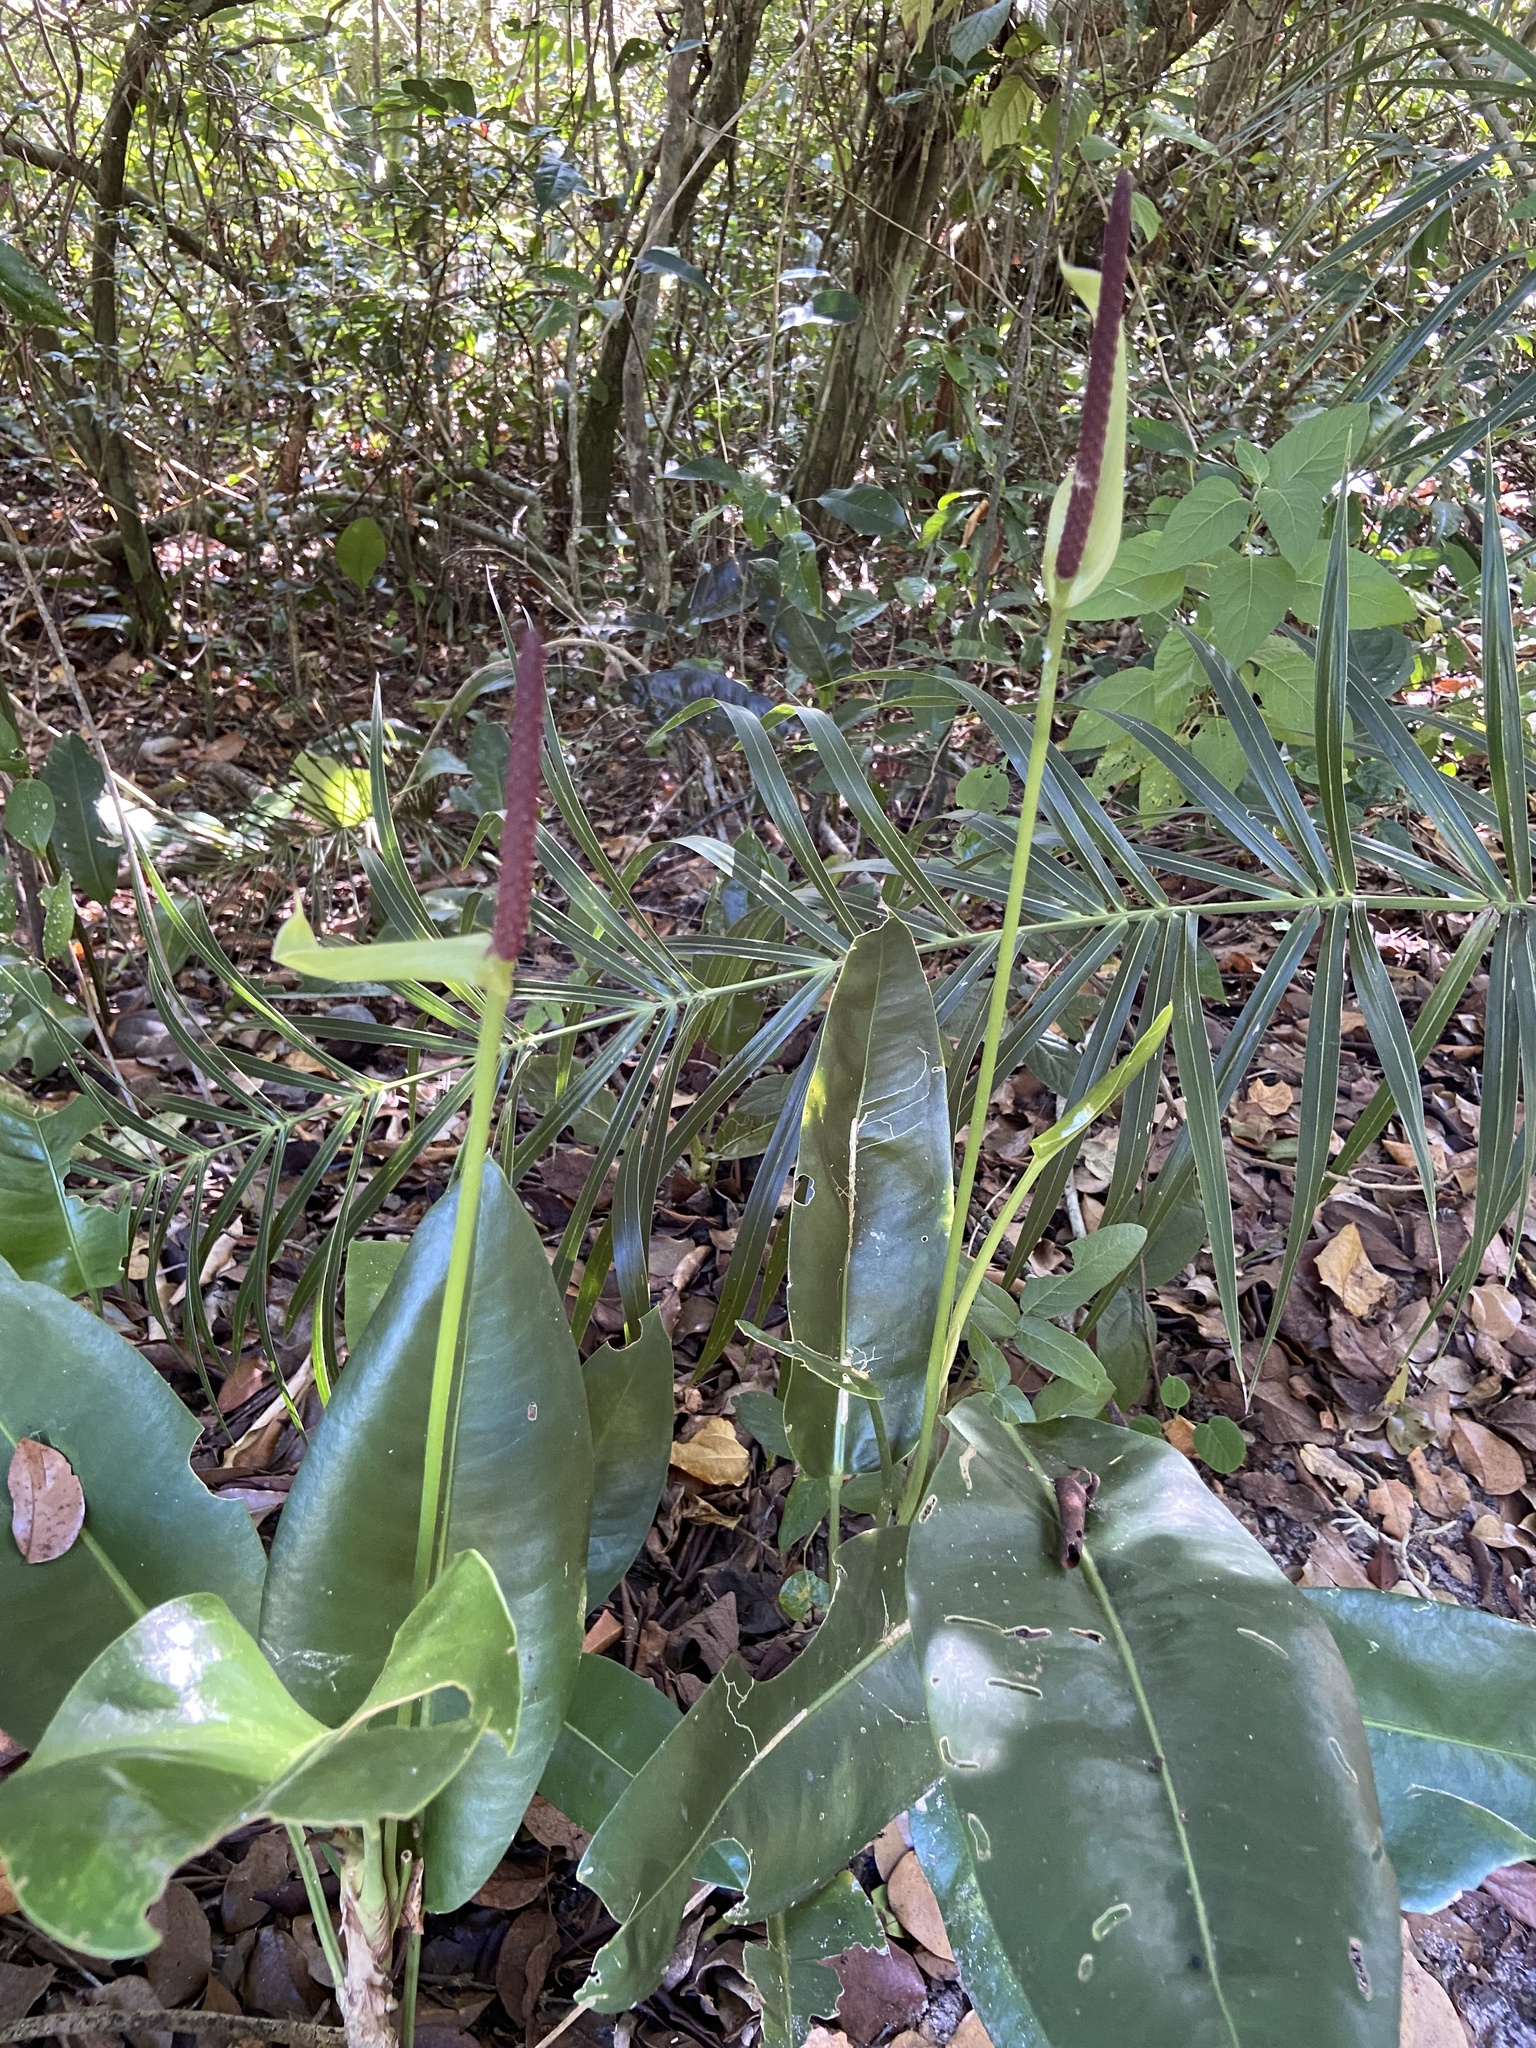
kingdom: Plantae
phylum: Tracheophyta
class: Liliopsida
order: Alismatales
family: Araceae
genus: Anthurium
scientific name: Anthurium parasiticum
